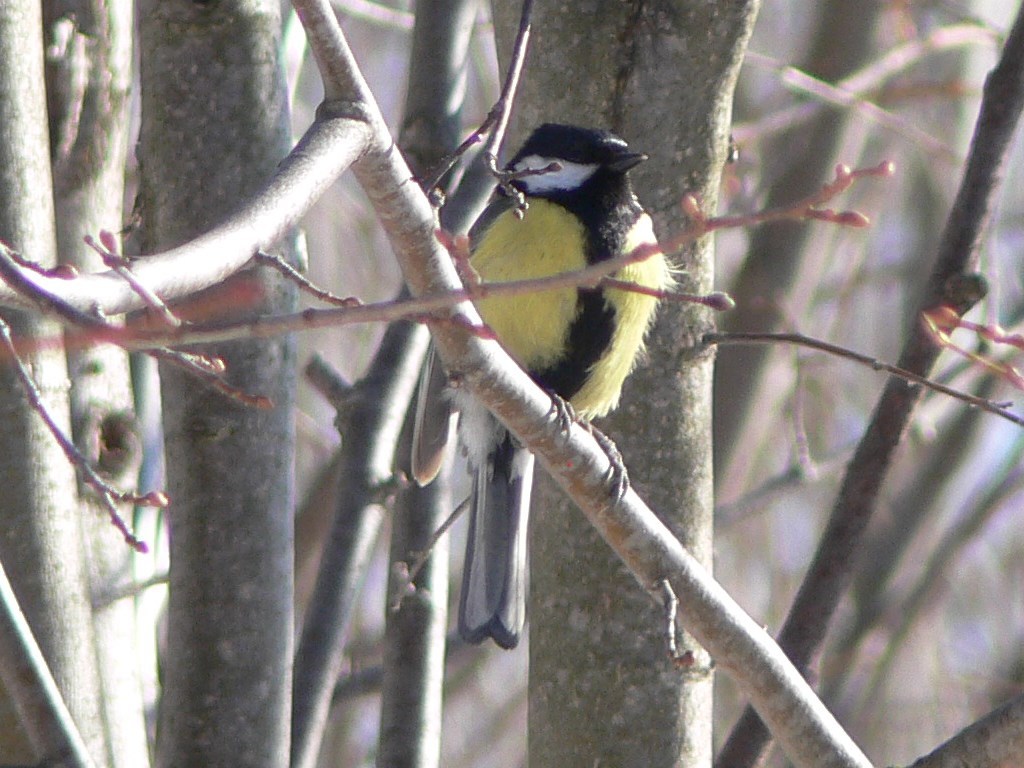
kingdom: Animalia
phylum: Chordata
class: Aves
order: Passeriformes
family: Paridae
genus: Parus
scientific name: Parus major
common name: Great tit
